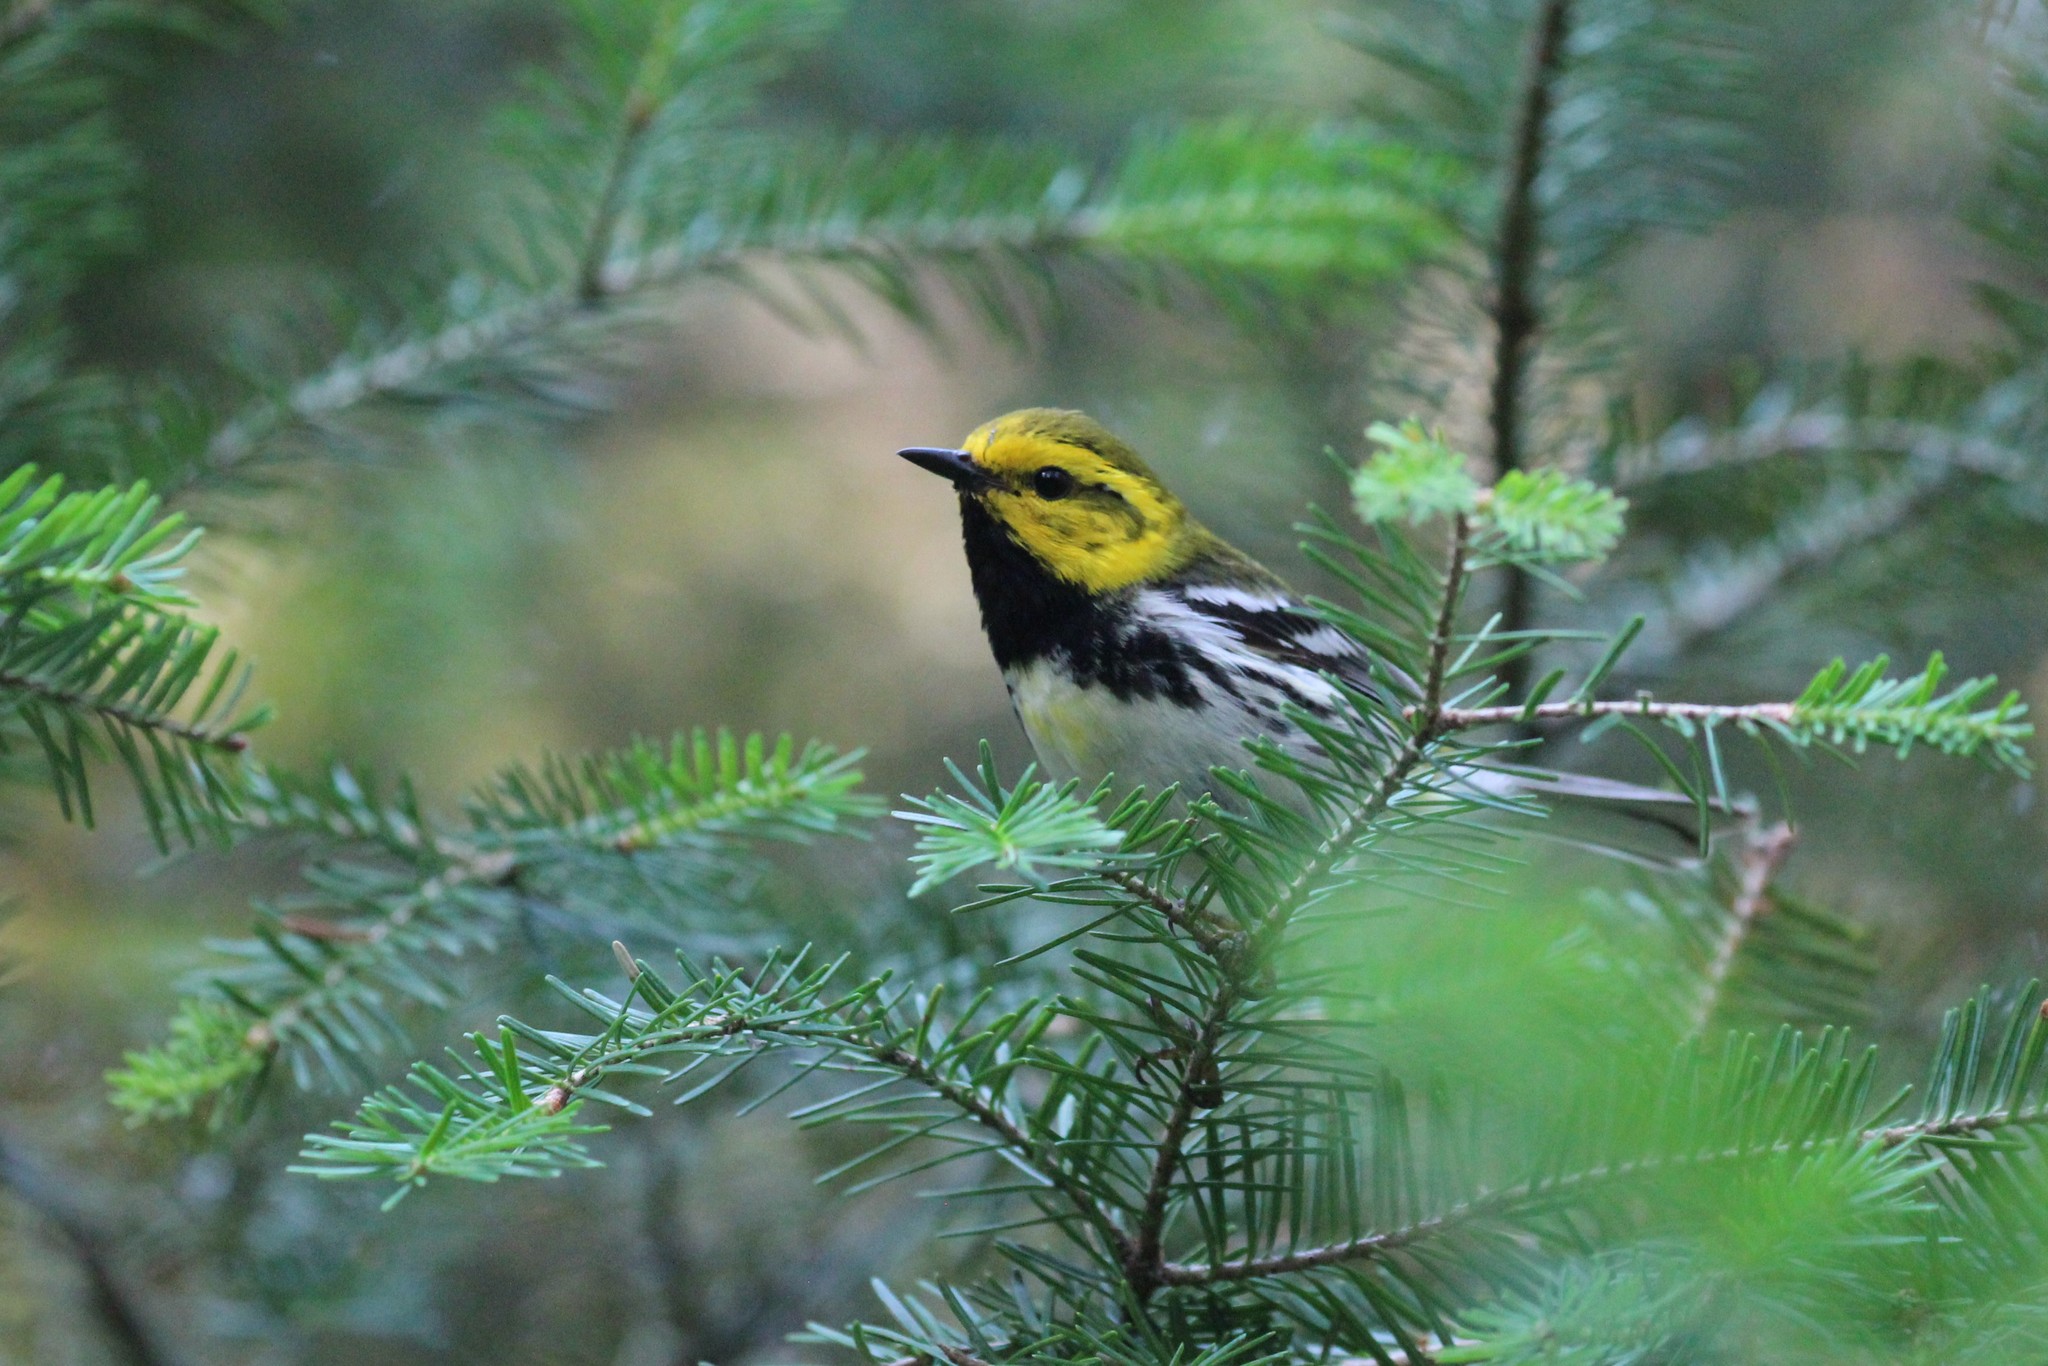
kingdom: Animalia
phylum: Chordata
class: Aves
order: Passeriformes
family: Parulidae
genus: Setophaga
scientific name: Setophaga virens
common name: Black-throated green warbler
